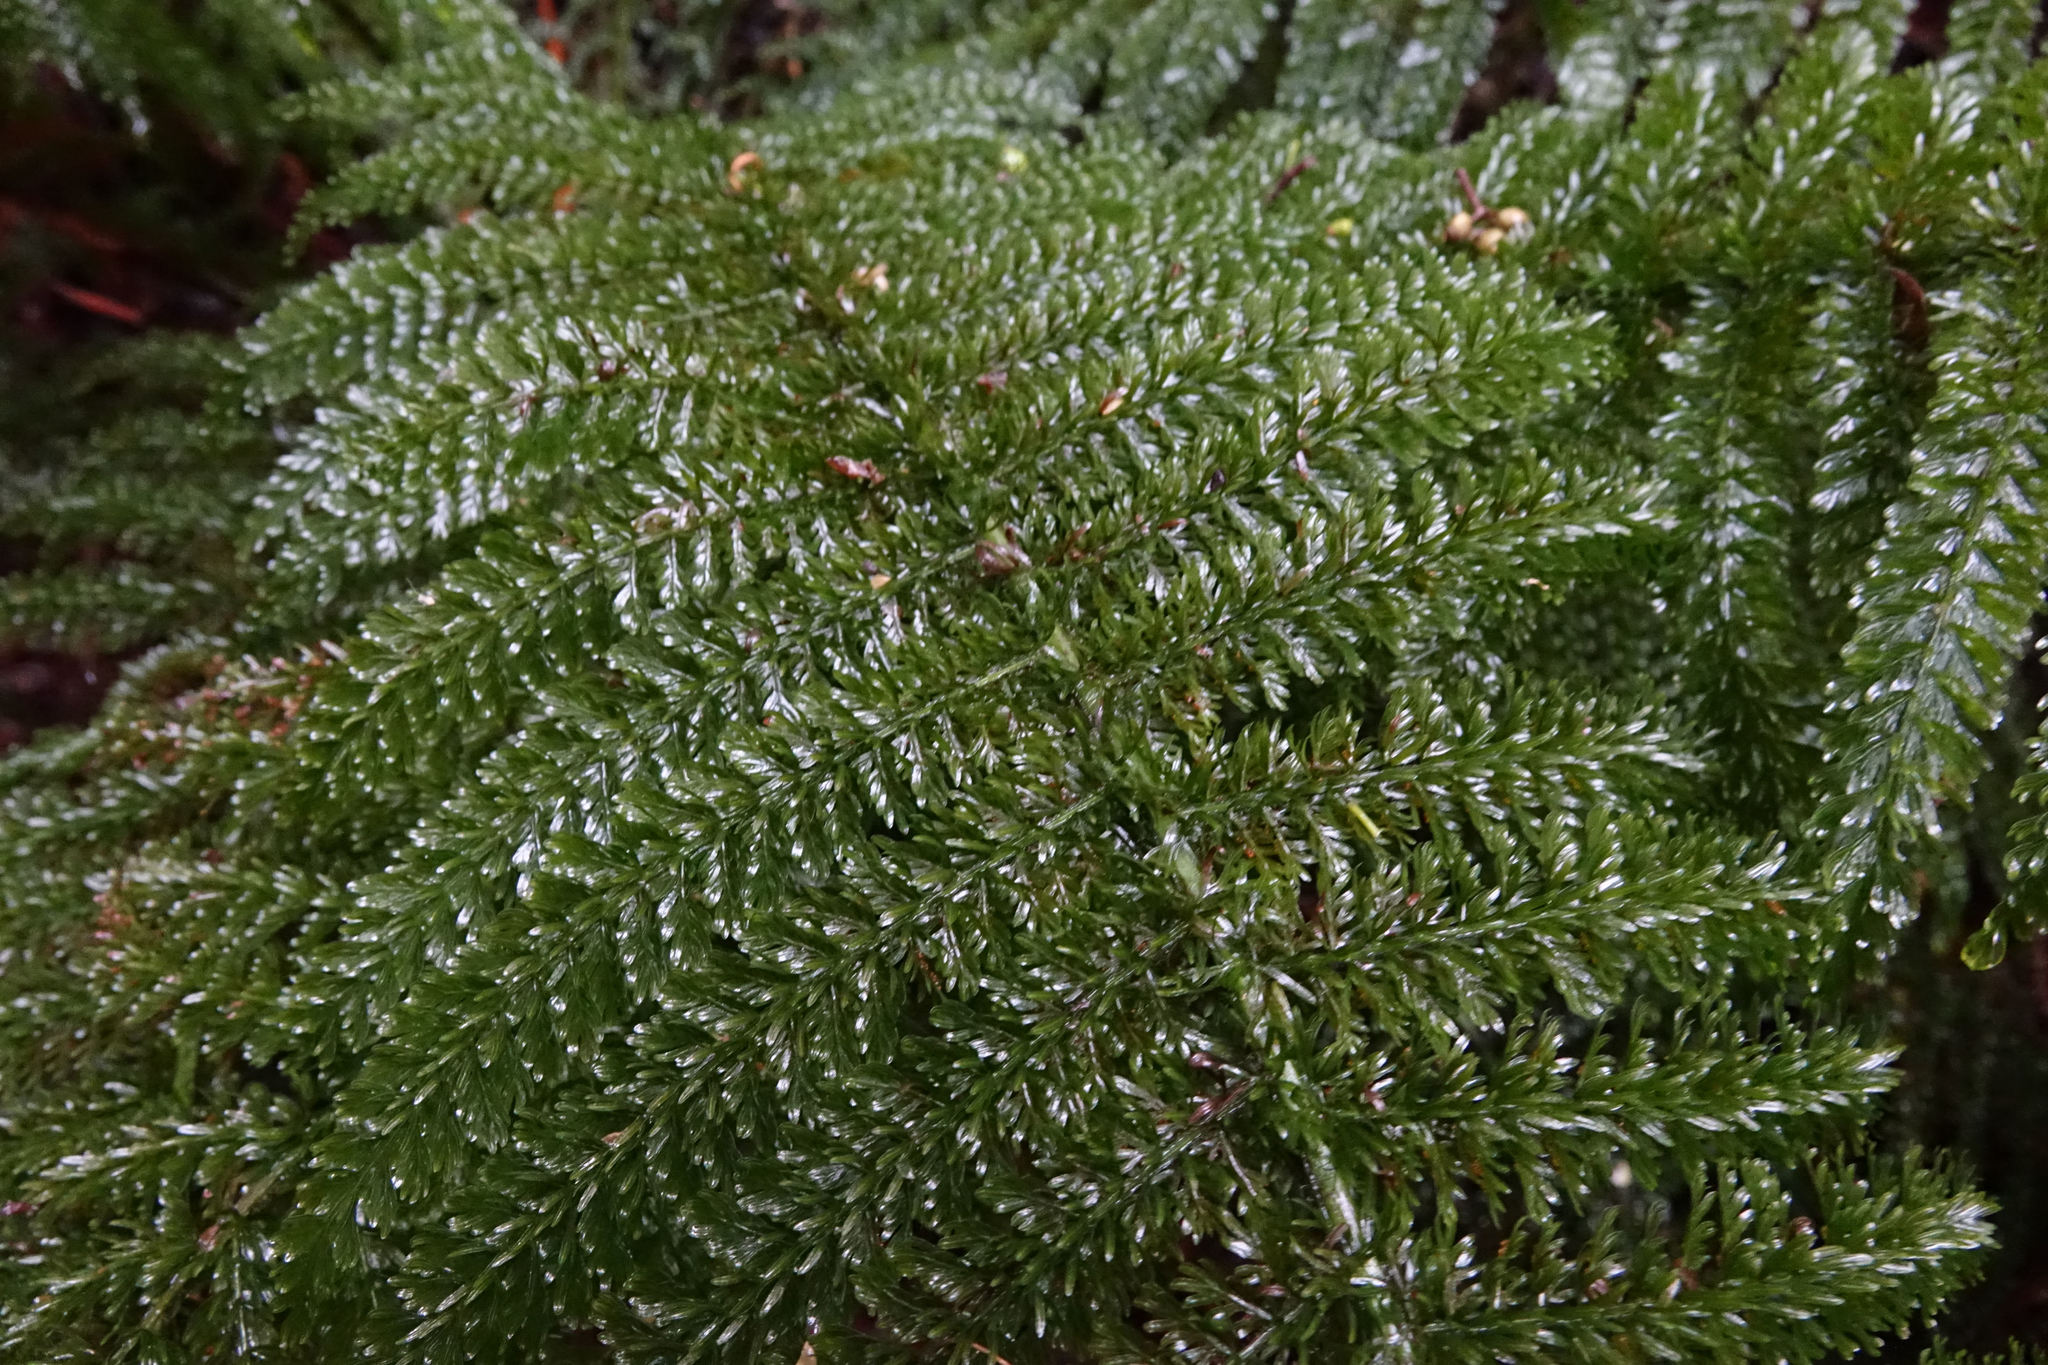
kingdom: Plantae
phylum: Tracheophyta
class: Polypodiopsida
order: Osmundales
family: Osmundaceae
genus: Leptopteris
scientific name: Leptopteris superba
